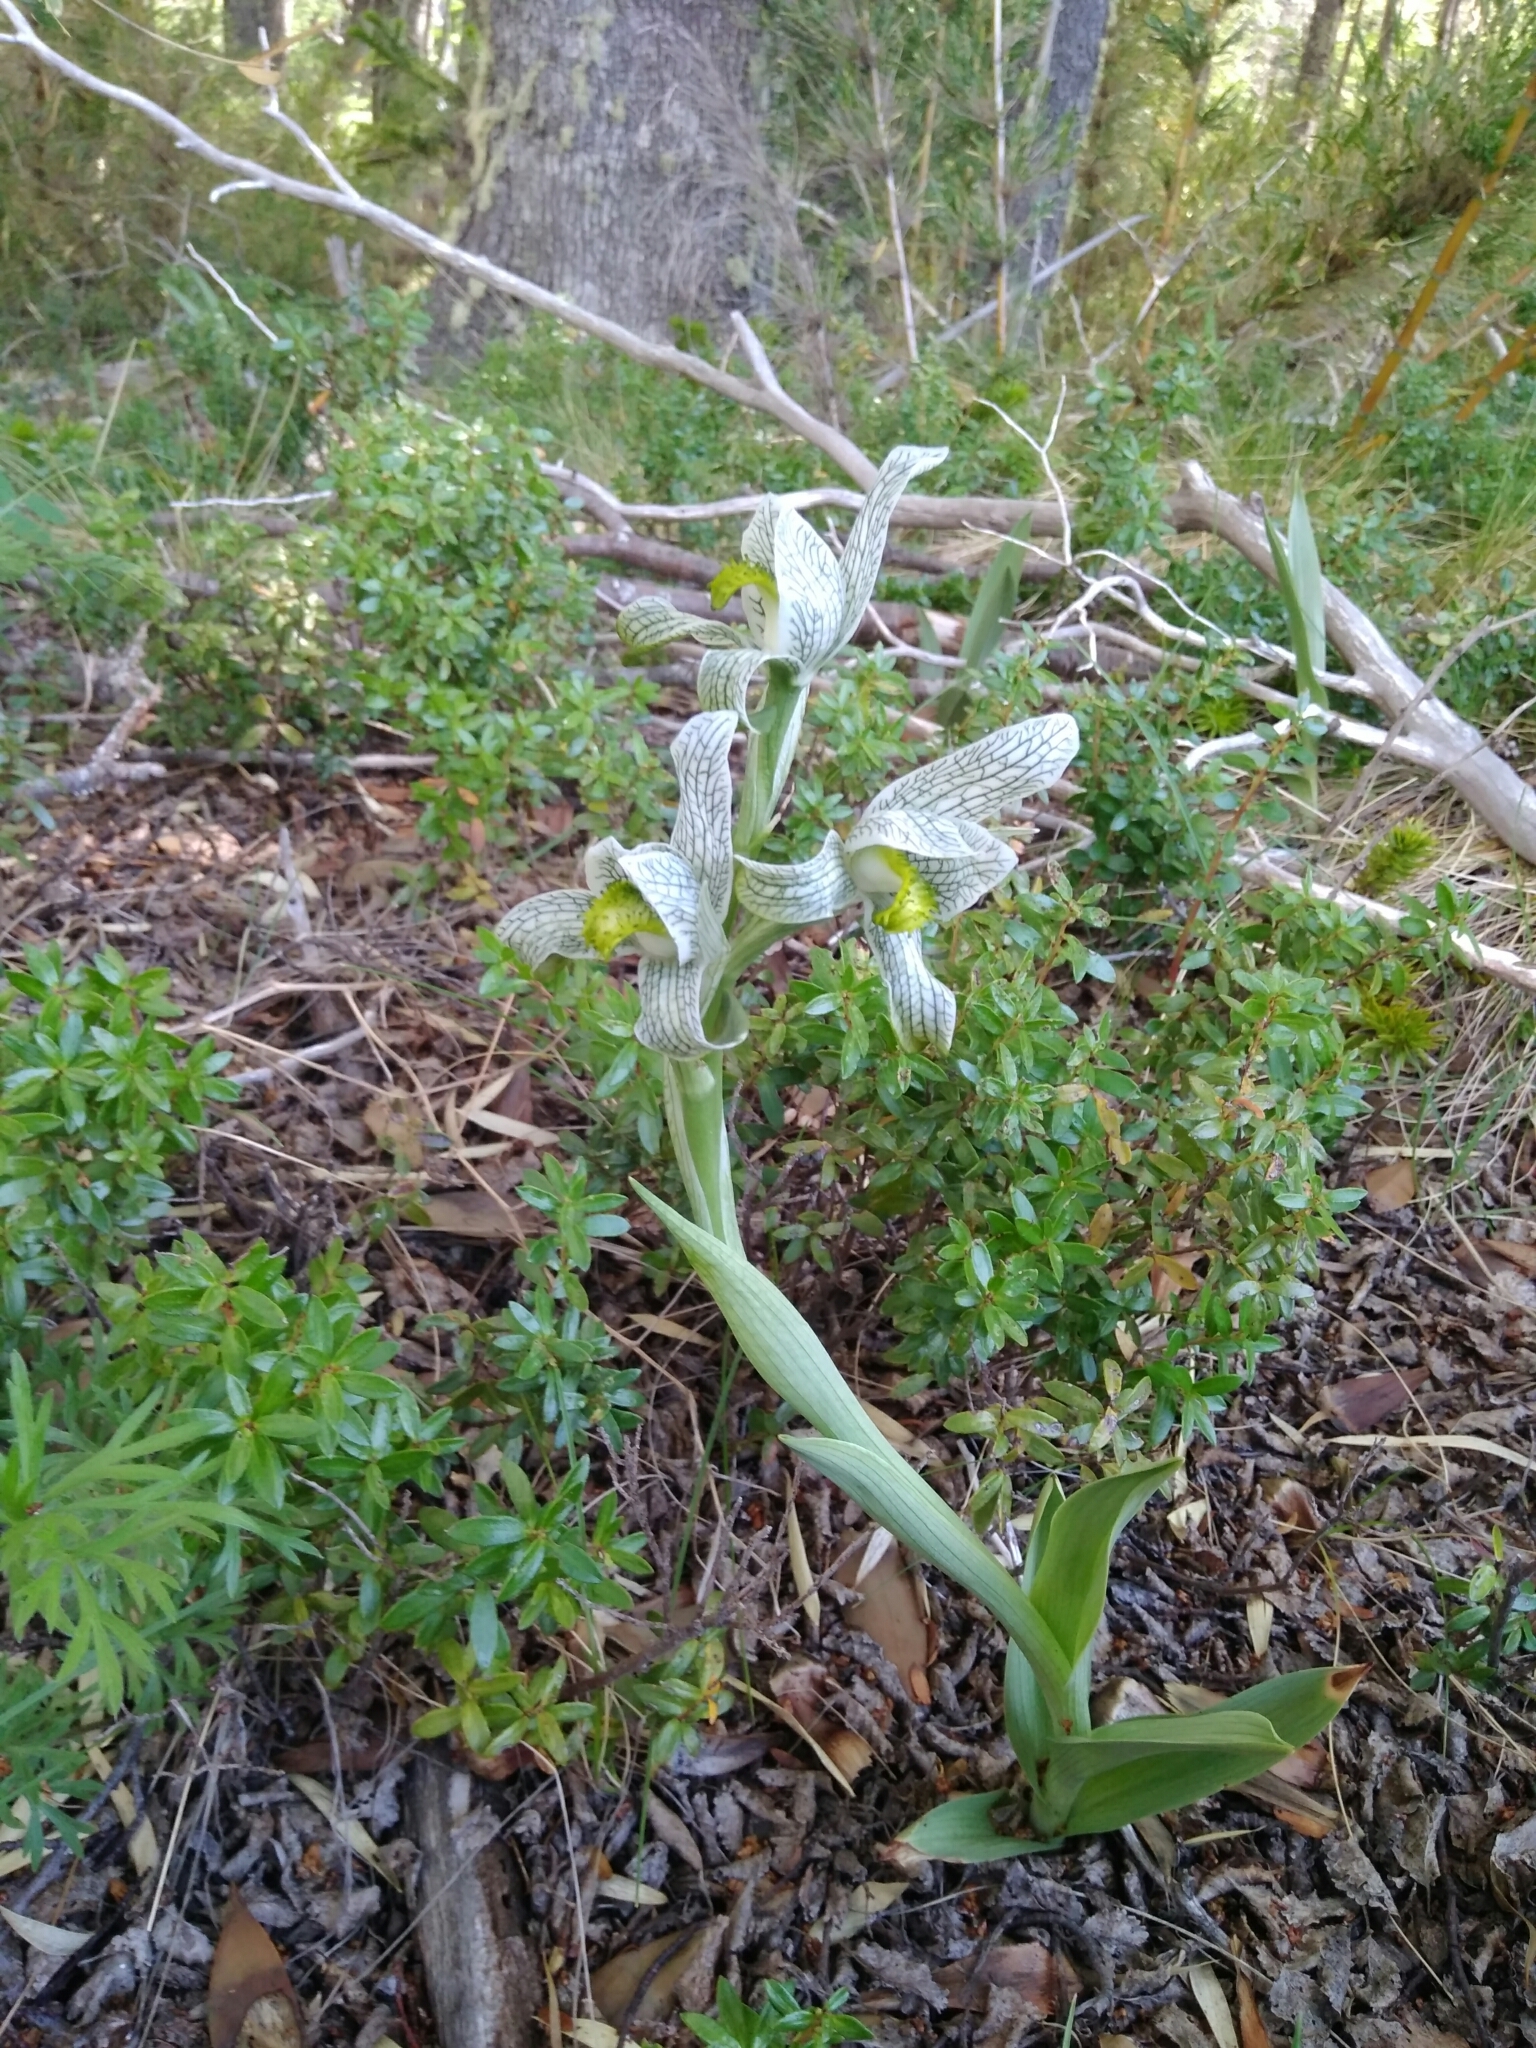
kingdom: Plantae
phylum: Tracheophyta
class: Liliopsida
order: Asparagales
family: Orchidaceae
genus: Chloraea
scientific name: Chloraea magellanica
